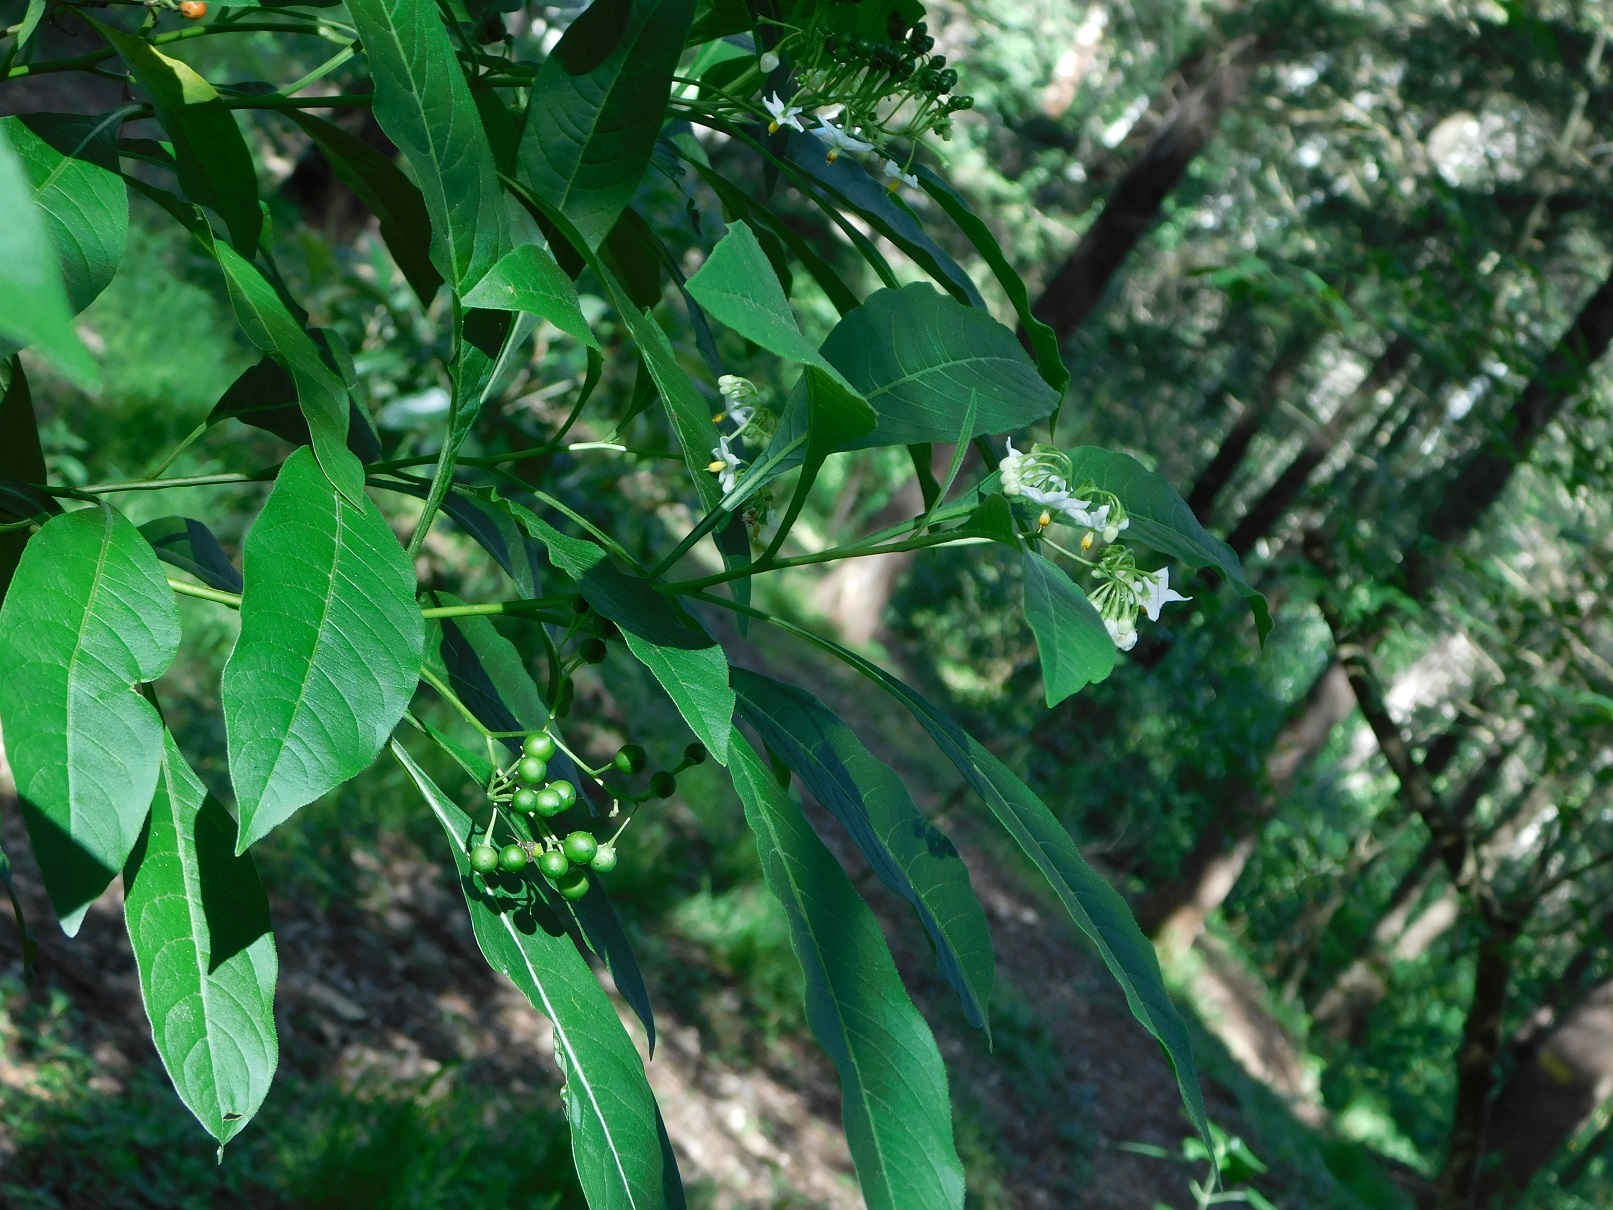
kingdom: Plantae
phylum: Tracheophyta
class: Magnoliopsida
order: Solanales
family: Solanaceae
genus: Solanum
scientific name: Solanum pubigerum
